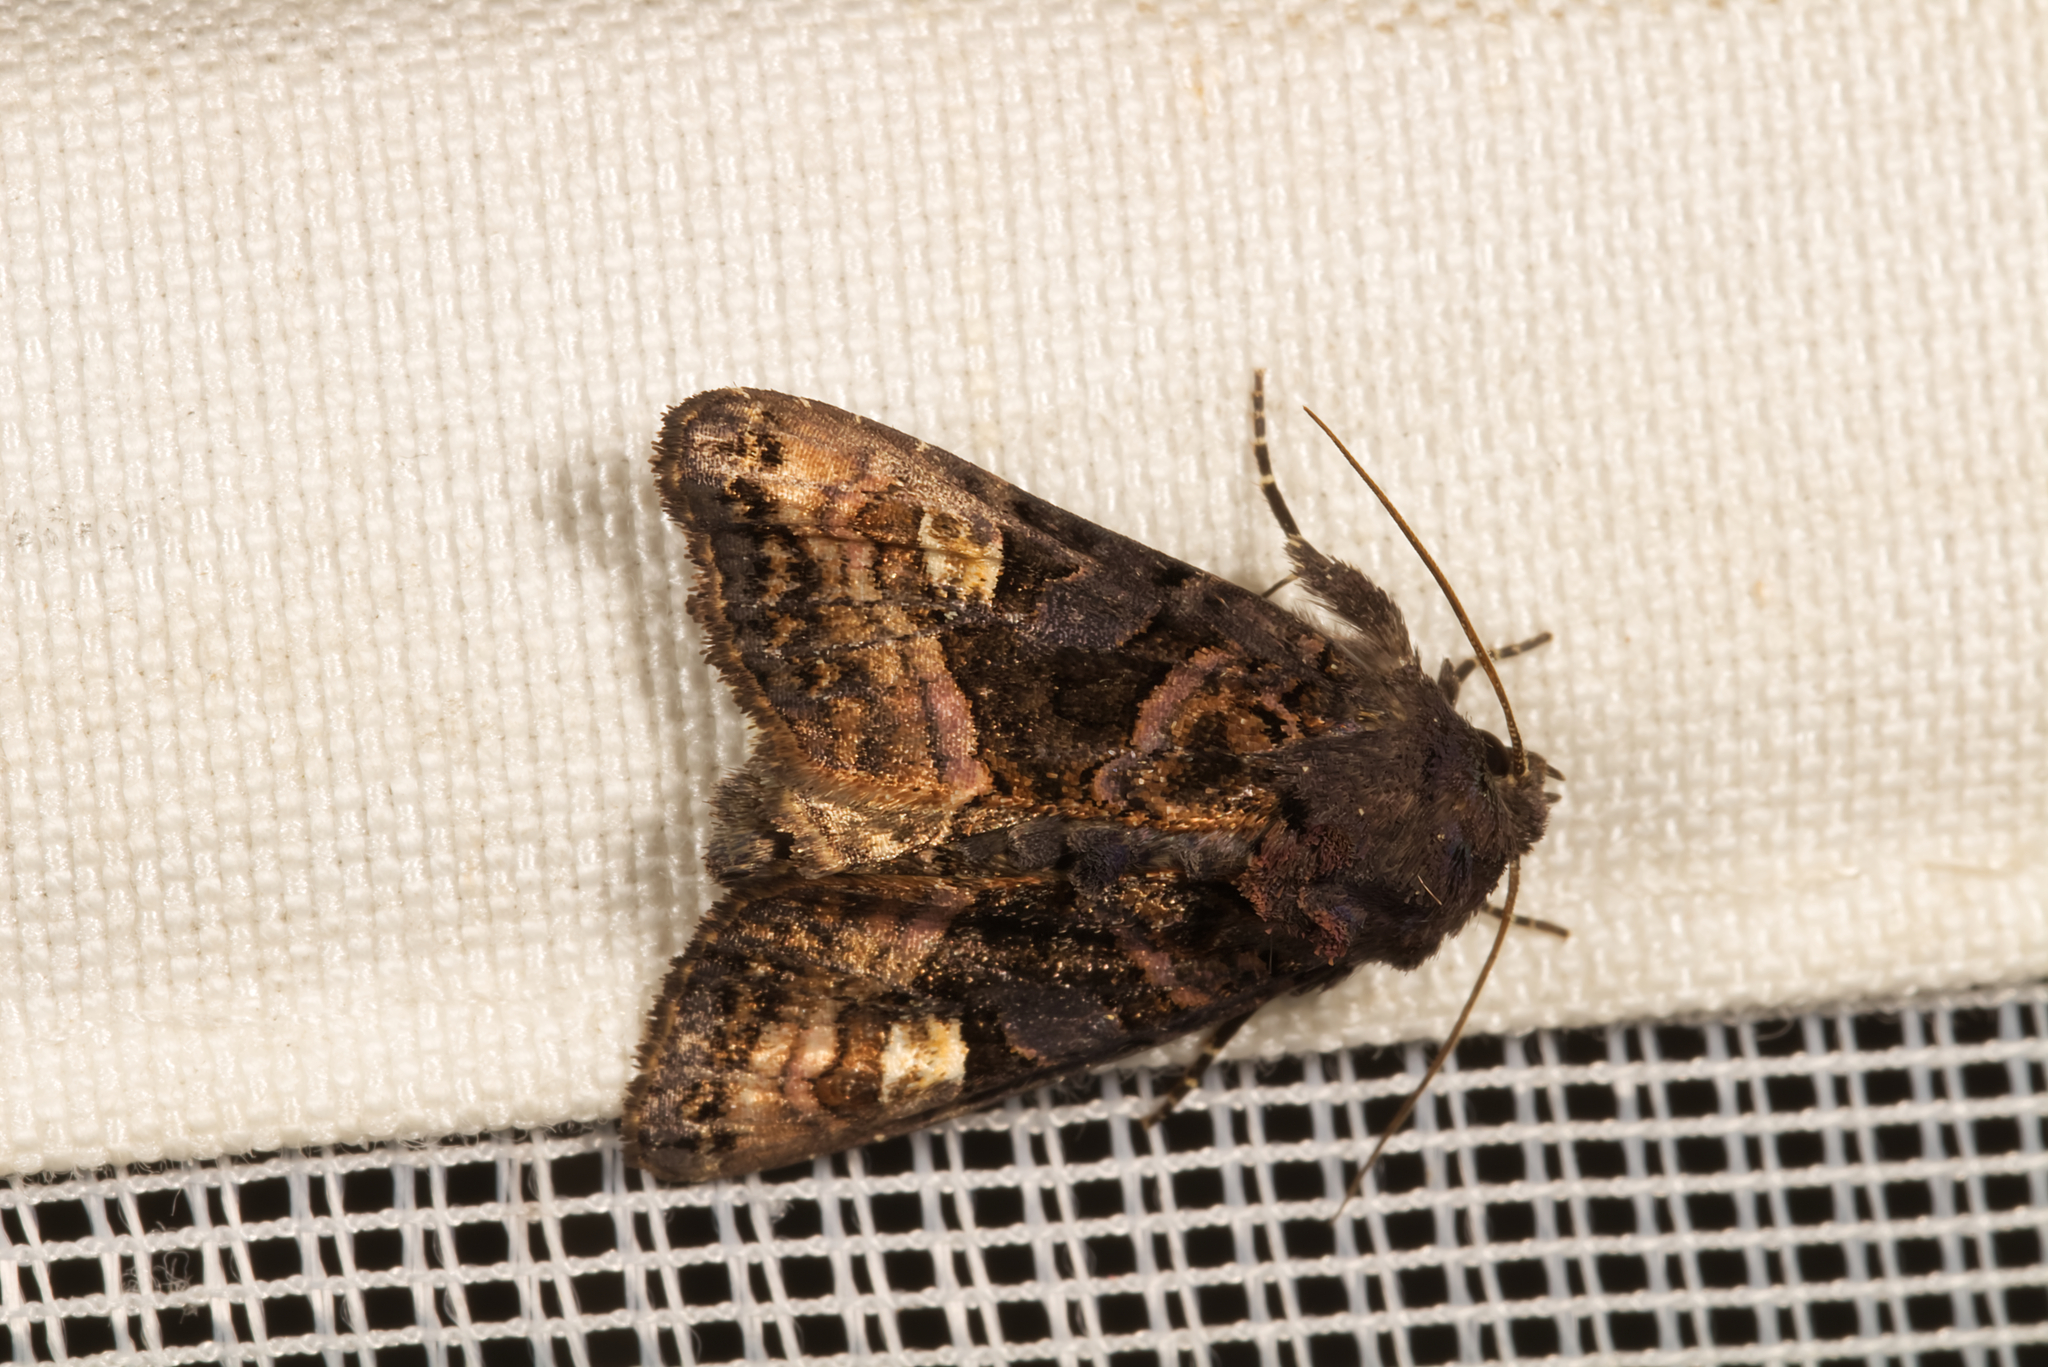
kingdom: Animalia
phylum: Arthropoda
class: Insecta
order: Lepidoptera
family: Noctuidae
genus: Euplexia
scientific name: Euplexia lucipara
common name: Small angle shades
